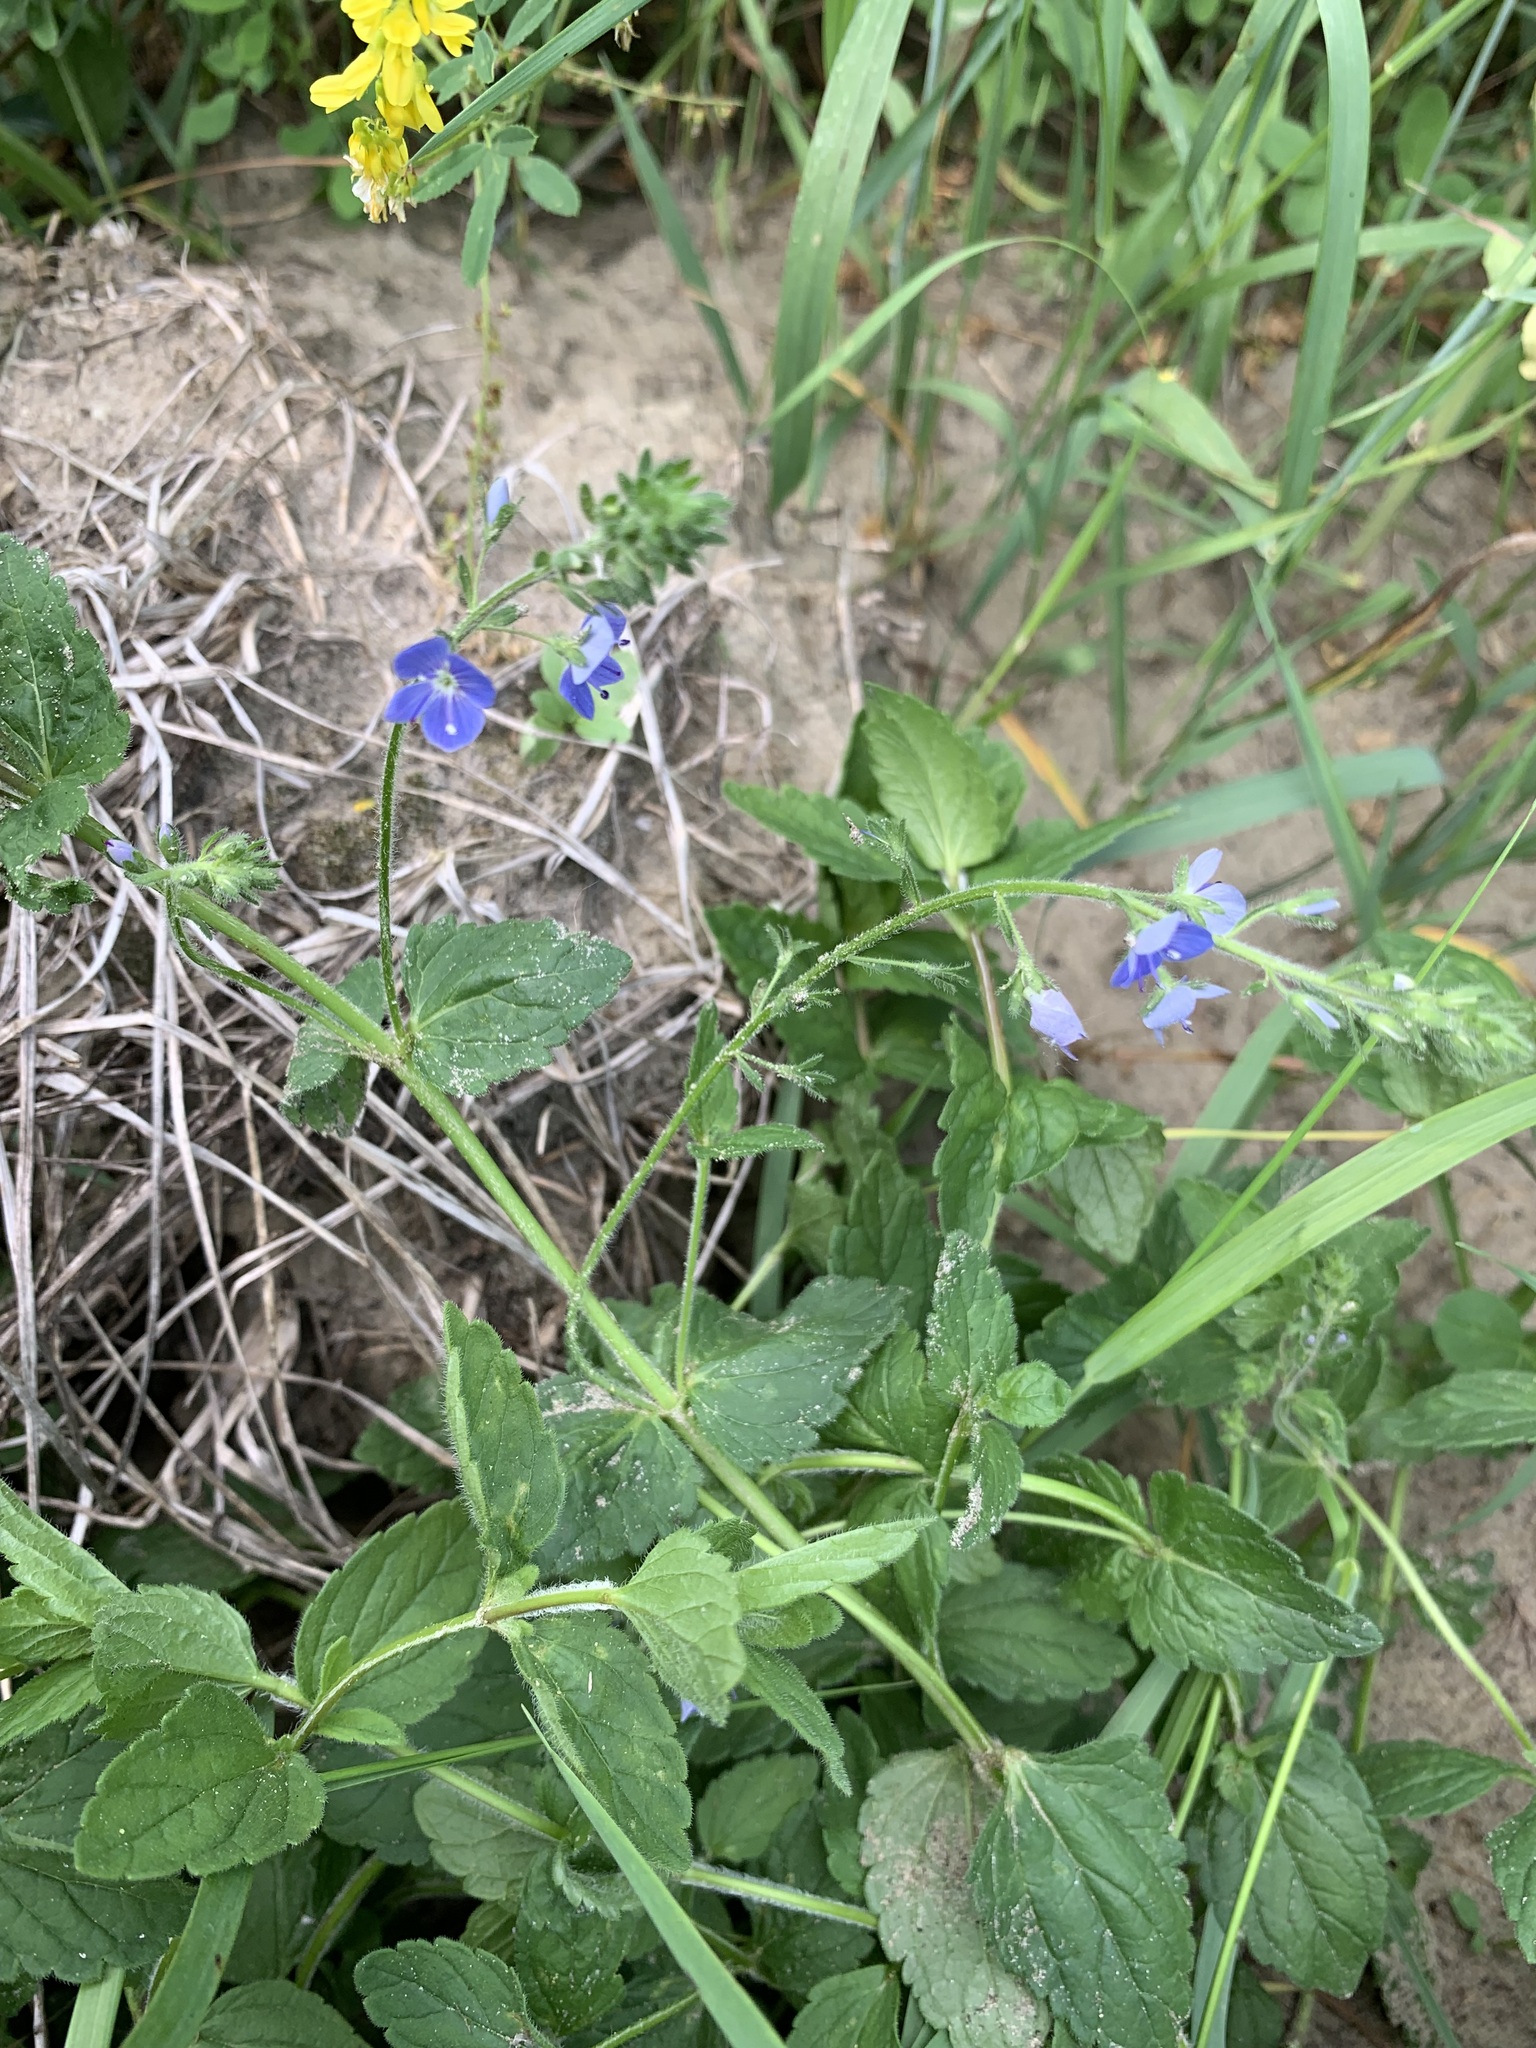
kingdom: Plantae
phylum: Tracheophyta
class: Magnoliopsida
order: Lamiales
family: Plantaginaceae
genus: Veronica
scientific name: Veronica chamaedrys
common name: Germander speedwell
